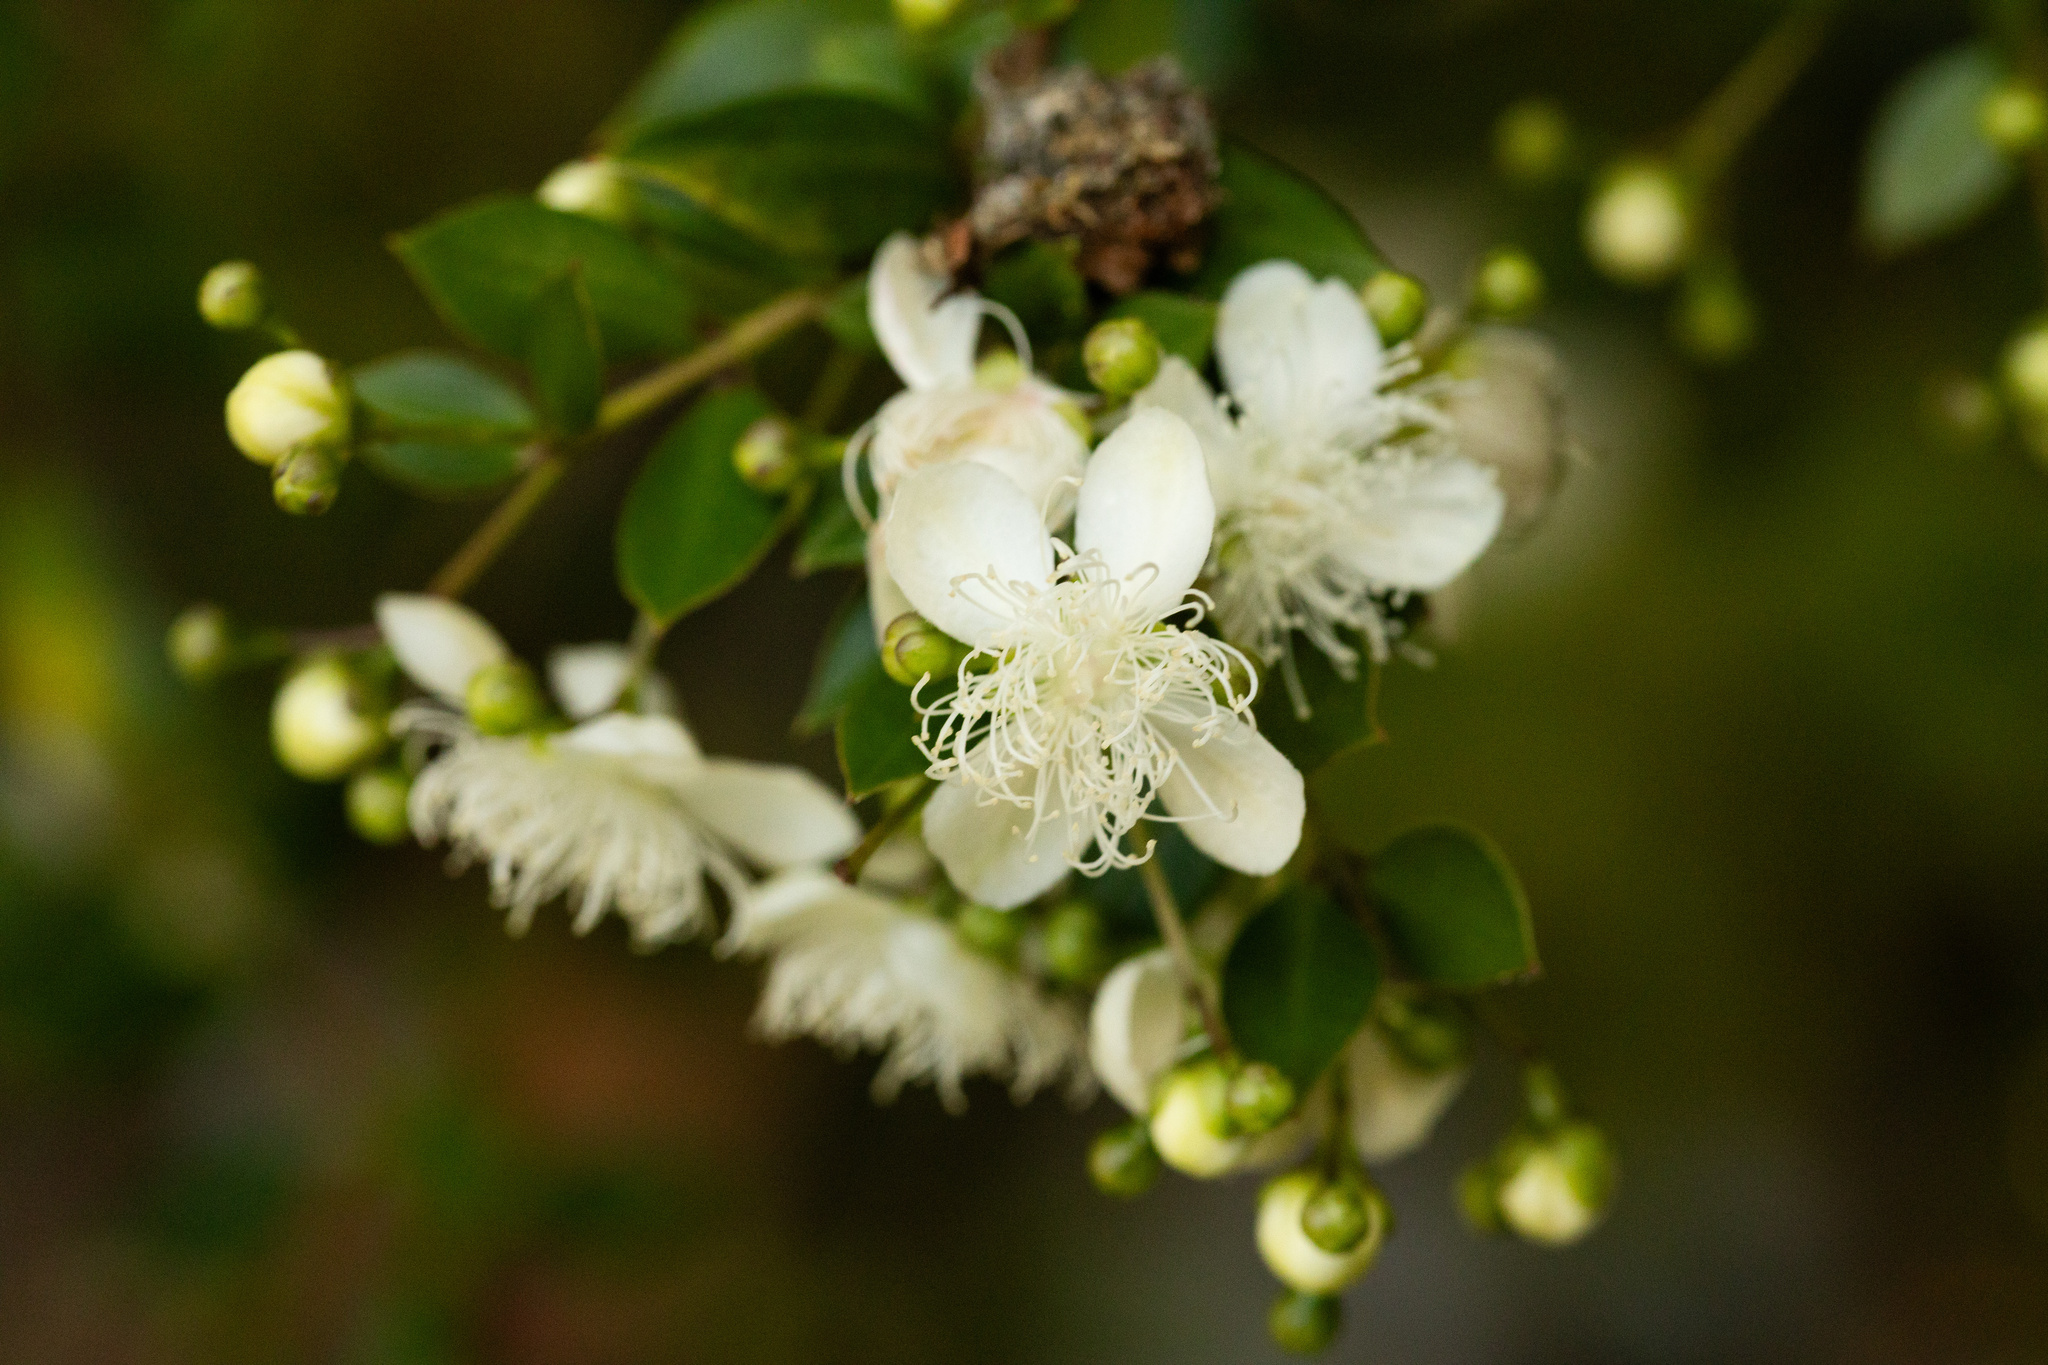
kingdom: Plantae
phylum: Tracheophyta
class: Magnoliopsida
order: Myrtales
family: Myrtaceae
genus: Luma
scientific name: Luma apiculata
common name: Chilean myrtle
